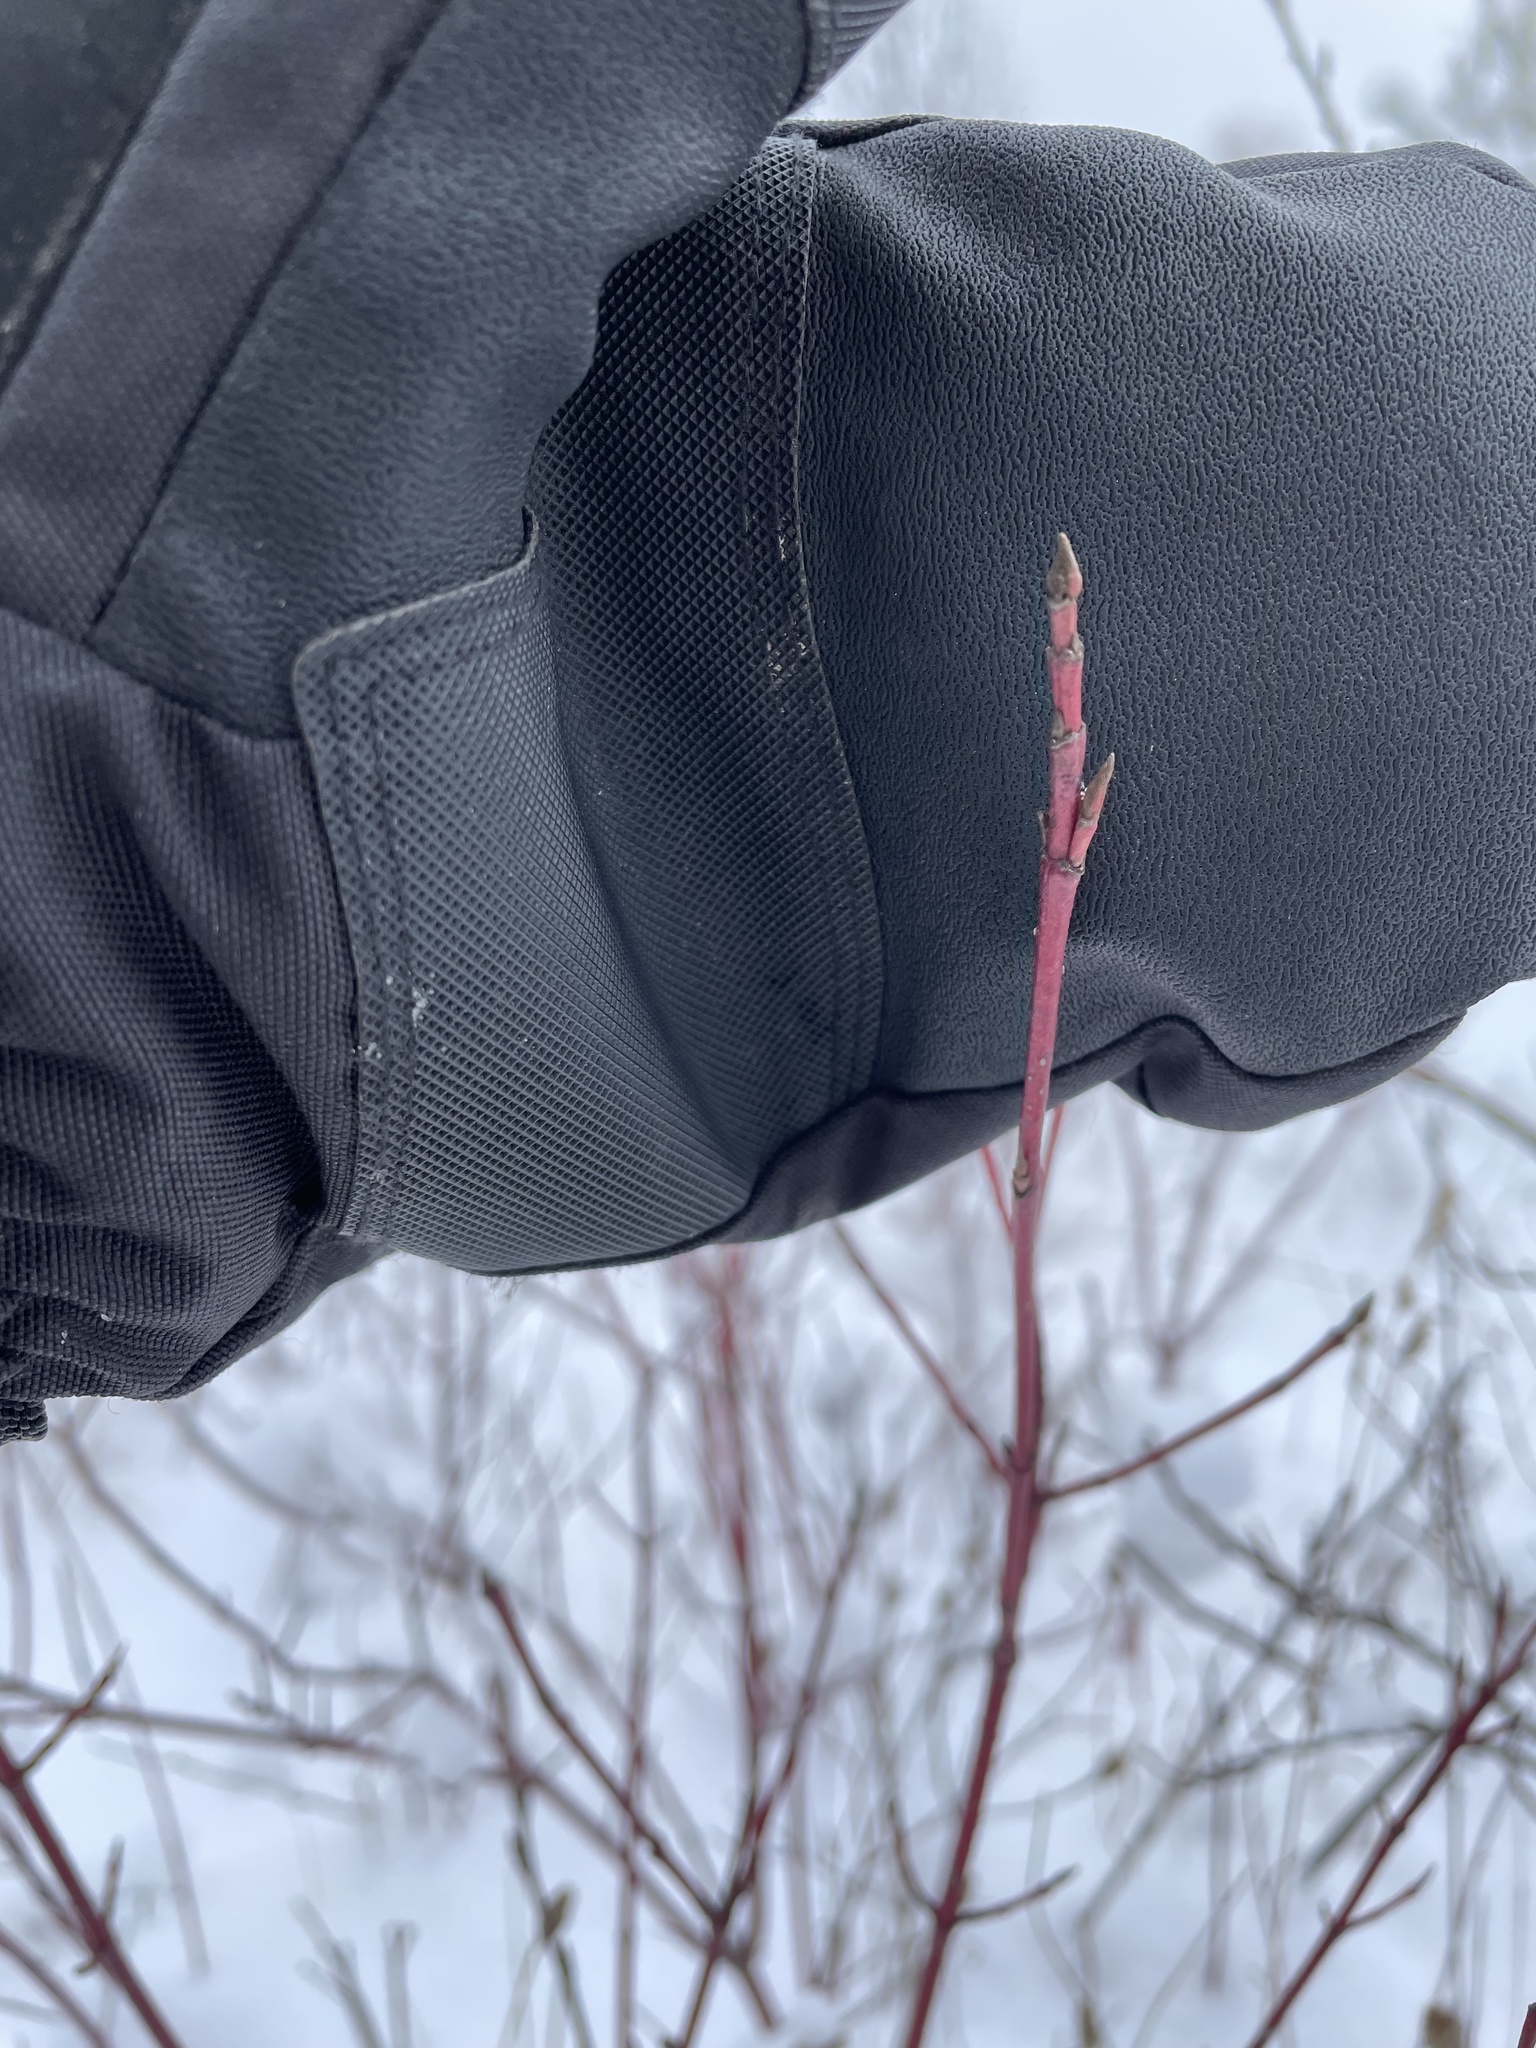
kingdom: Plantae
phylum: Tracheophyta
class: Magnoliopsida
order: Cornales
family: Cornaceae
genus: Cornus
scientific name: Cornus sericea
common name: Red-osier dogwood
